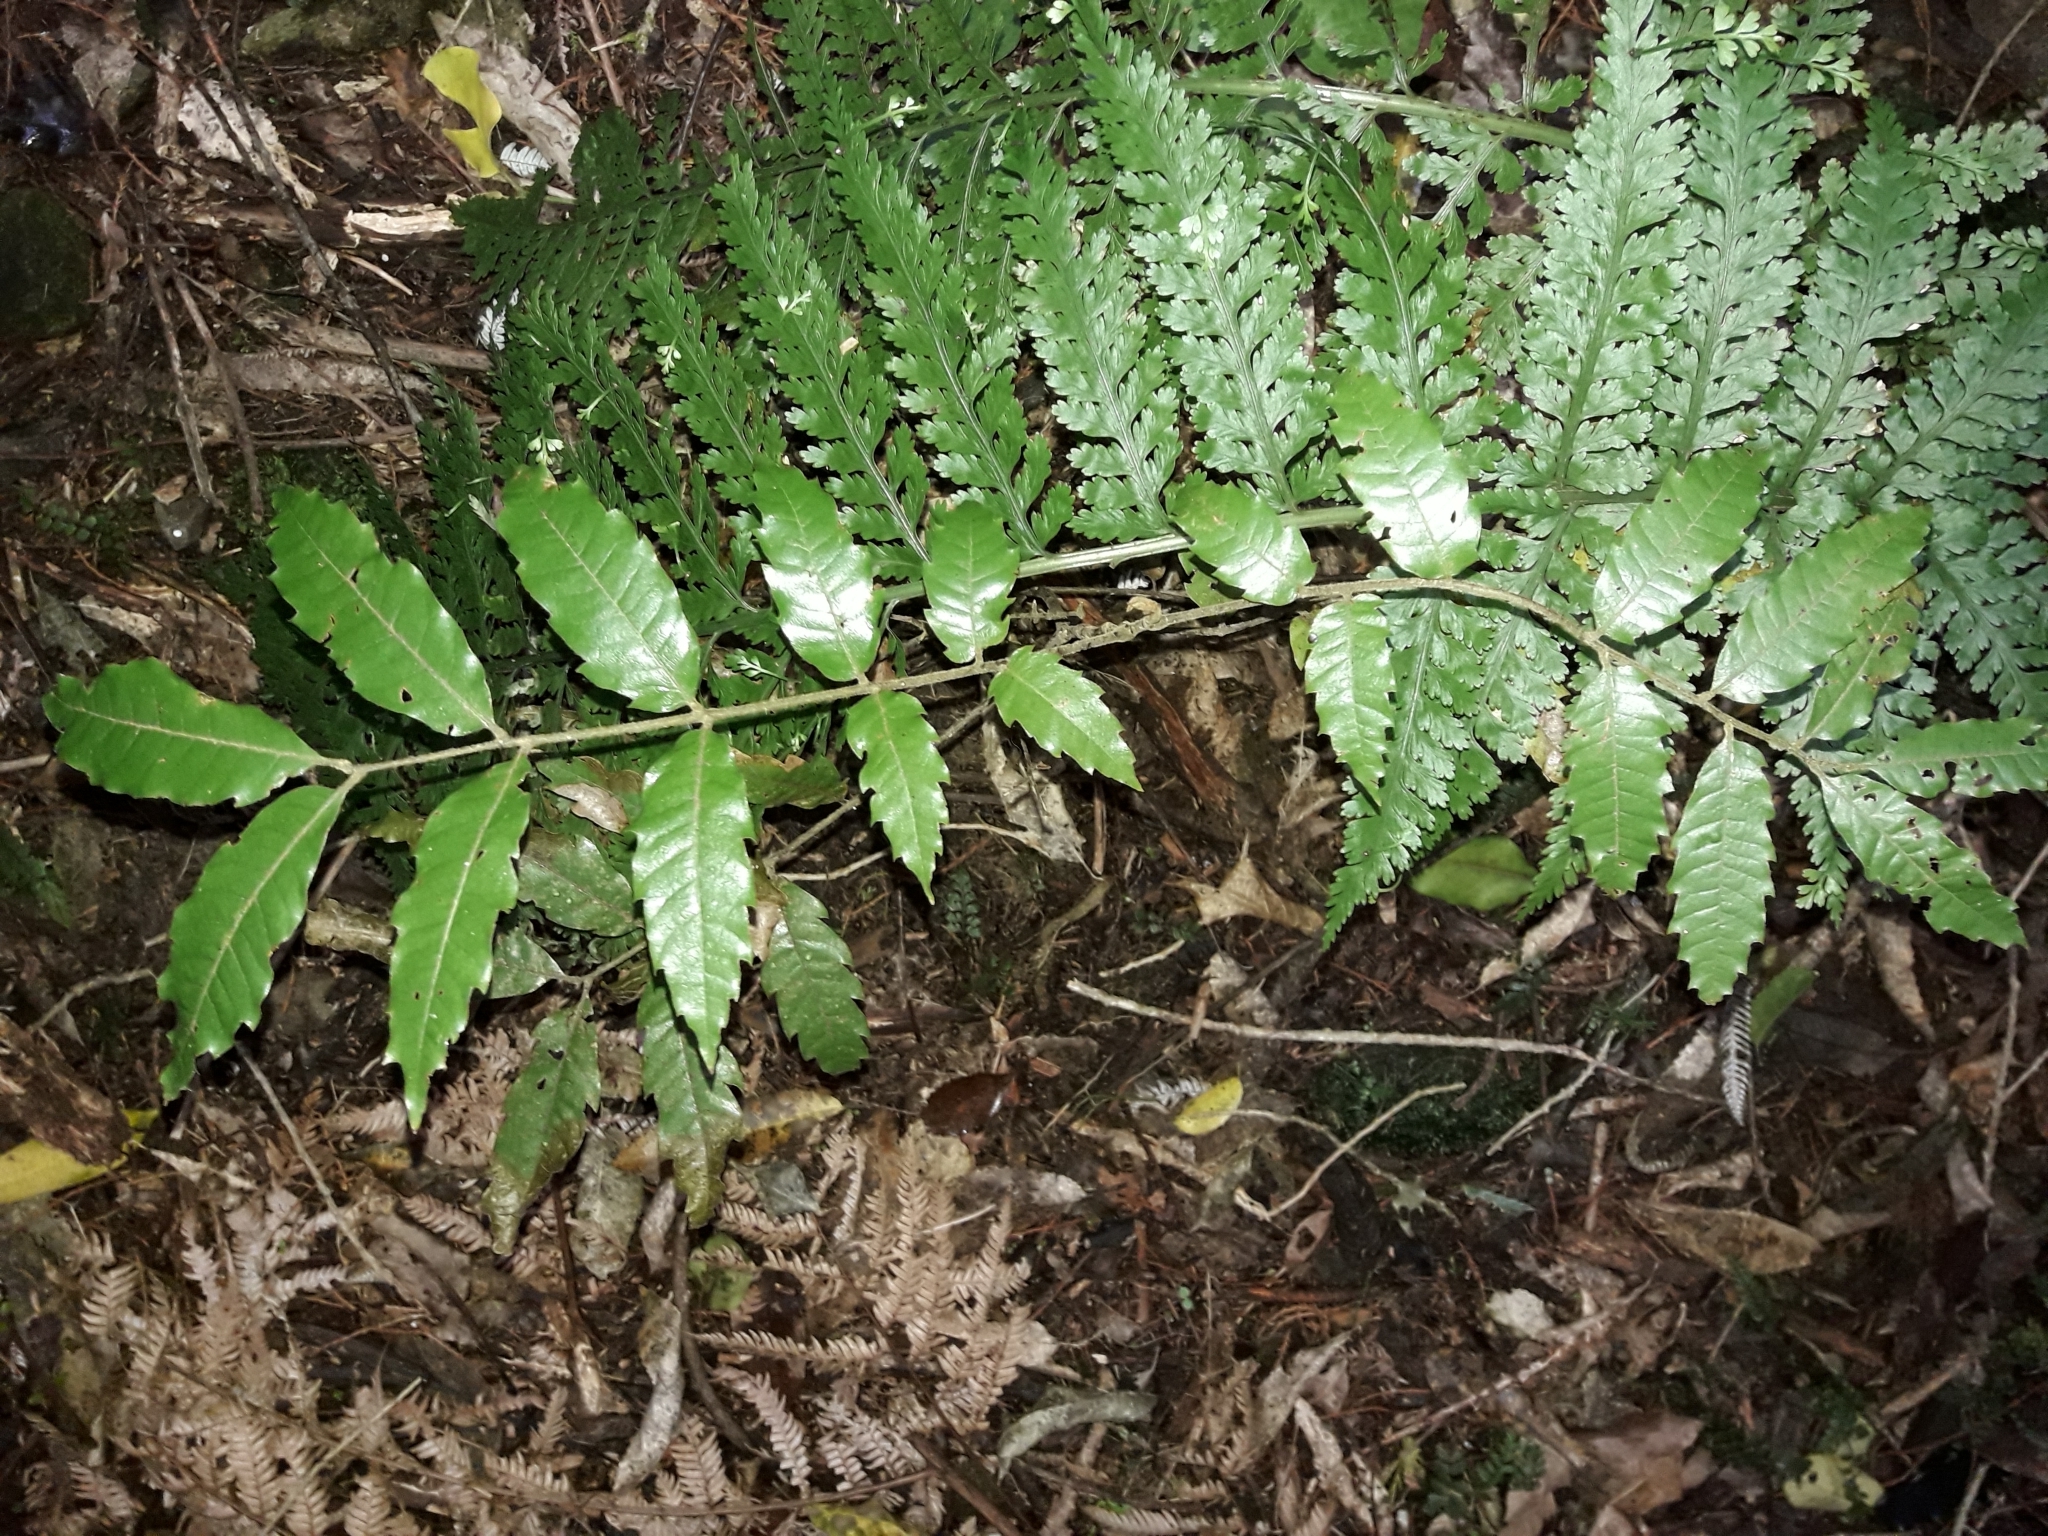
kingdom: Plantae
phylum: Tracheophyta
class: Magnoliopsida
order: Sapindales
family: Sapindaceae
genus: Alectryon
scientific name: Alectryon excelsus
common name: Three kings titoki
